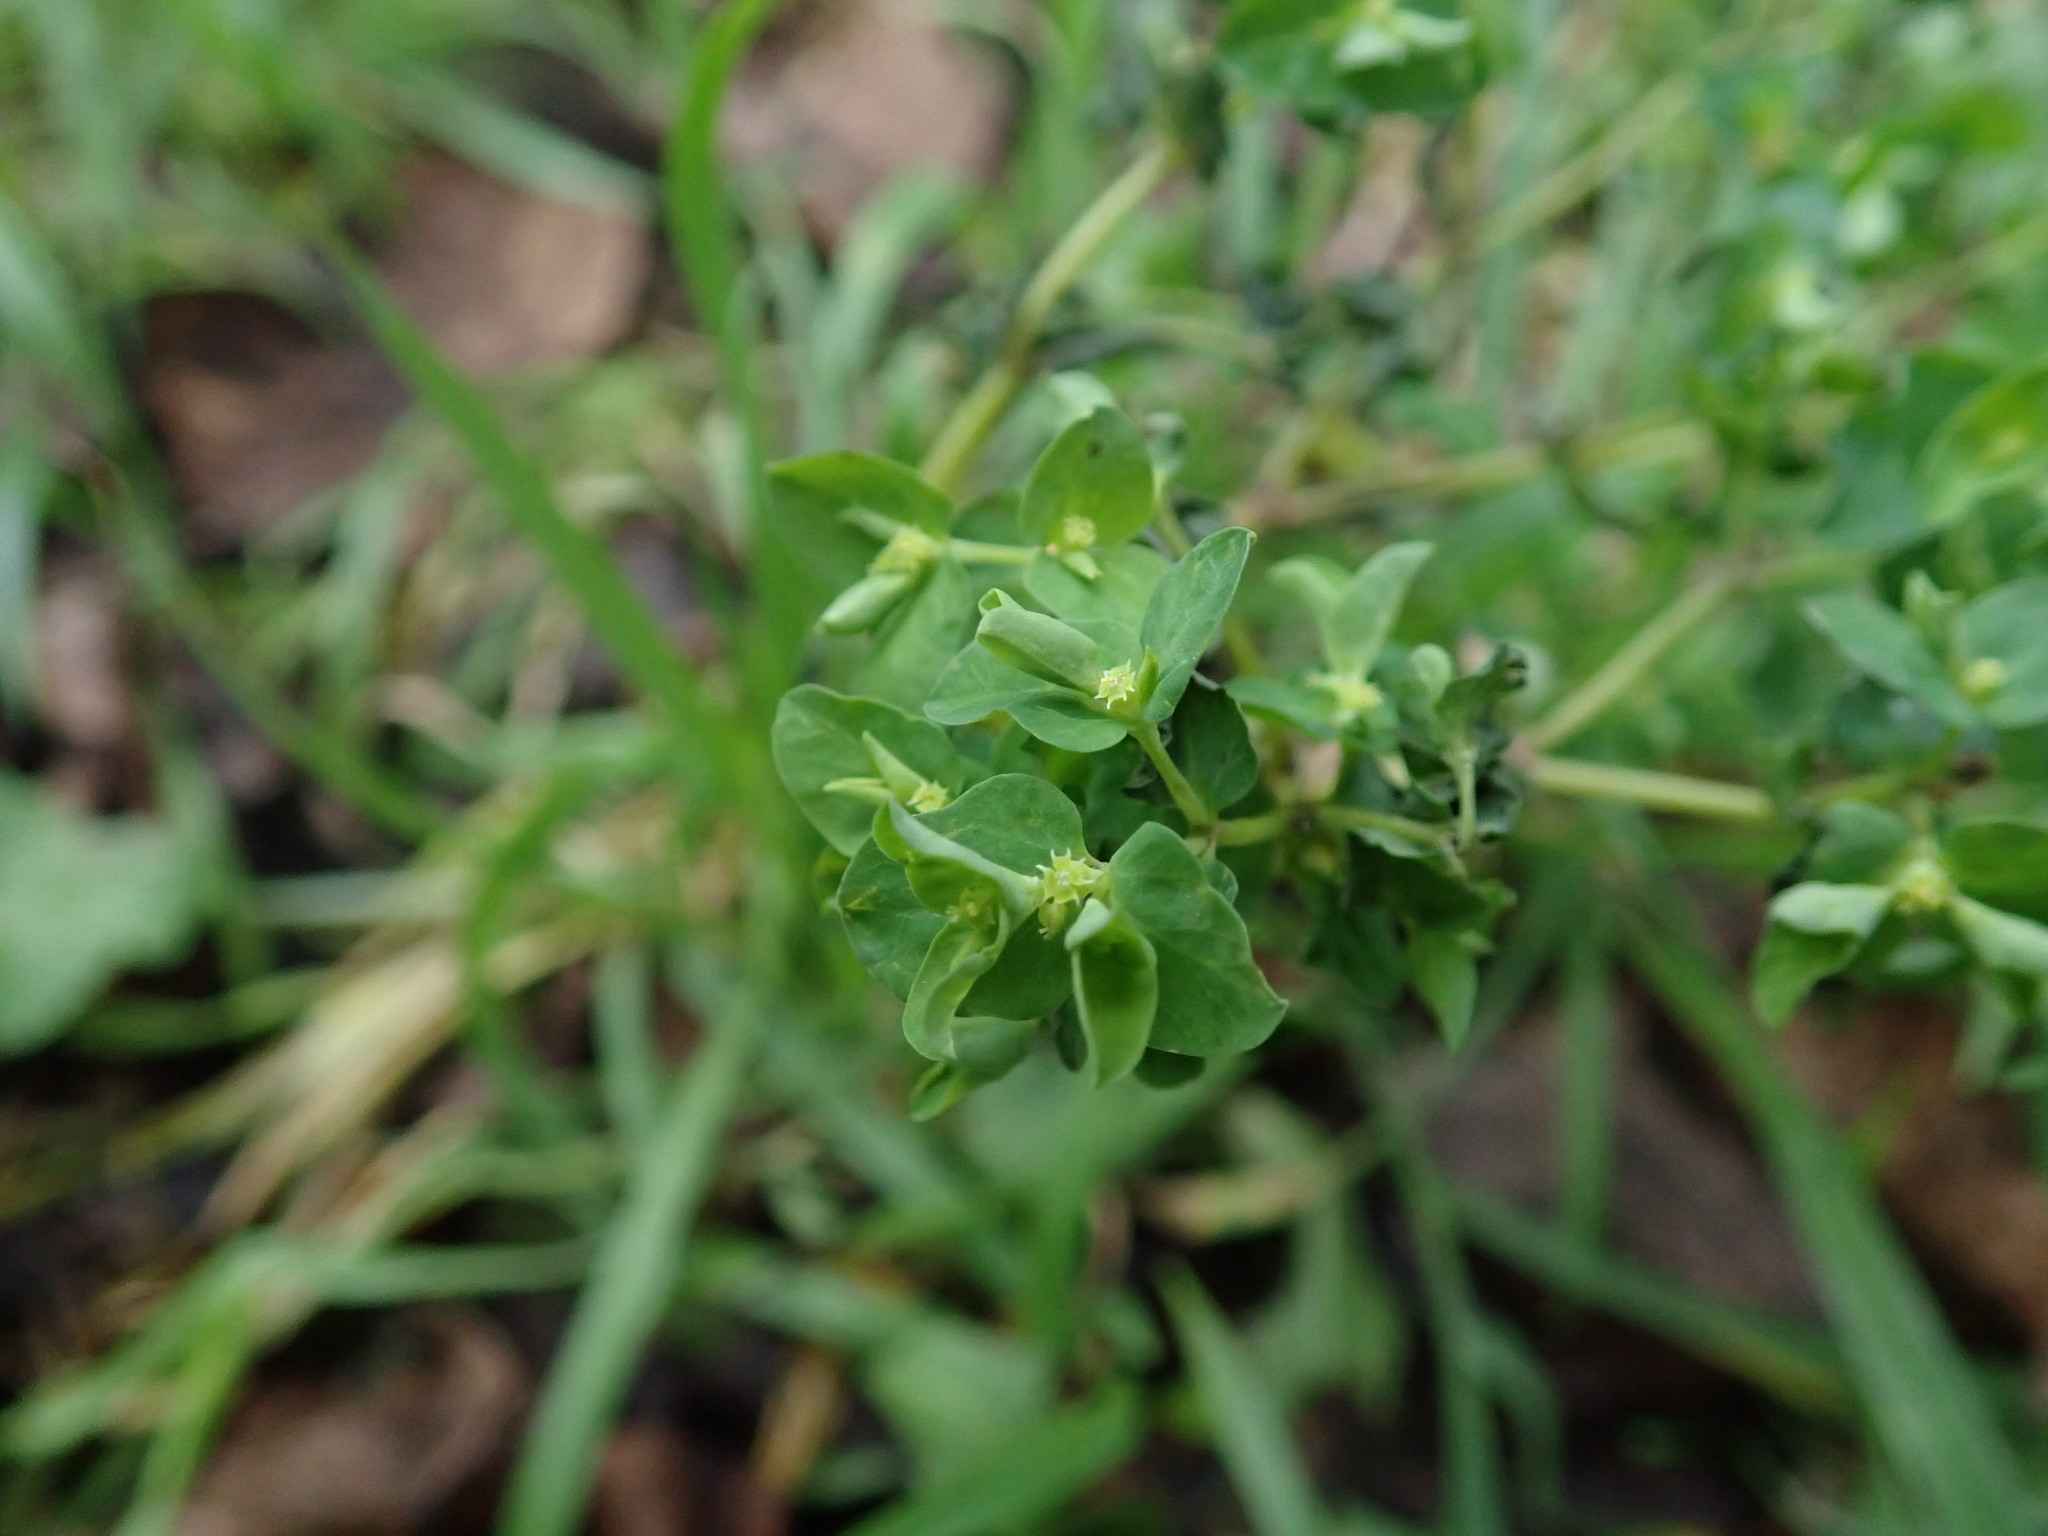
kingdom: Plantae
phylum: Tracheophyta
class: Magnoliopsida
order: Malpighiales
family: Euphorbiaceae
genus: Euphorbia
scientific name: Euphorbia peplus
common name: Petty spurge
